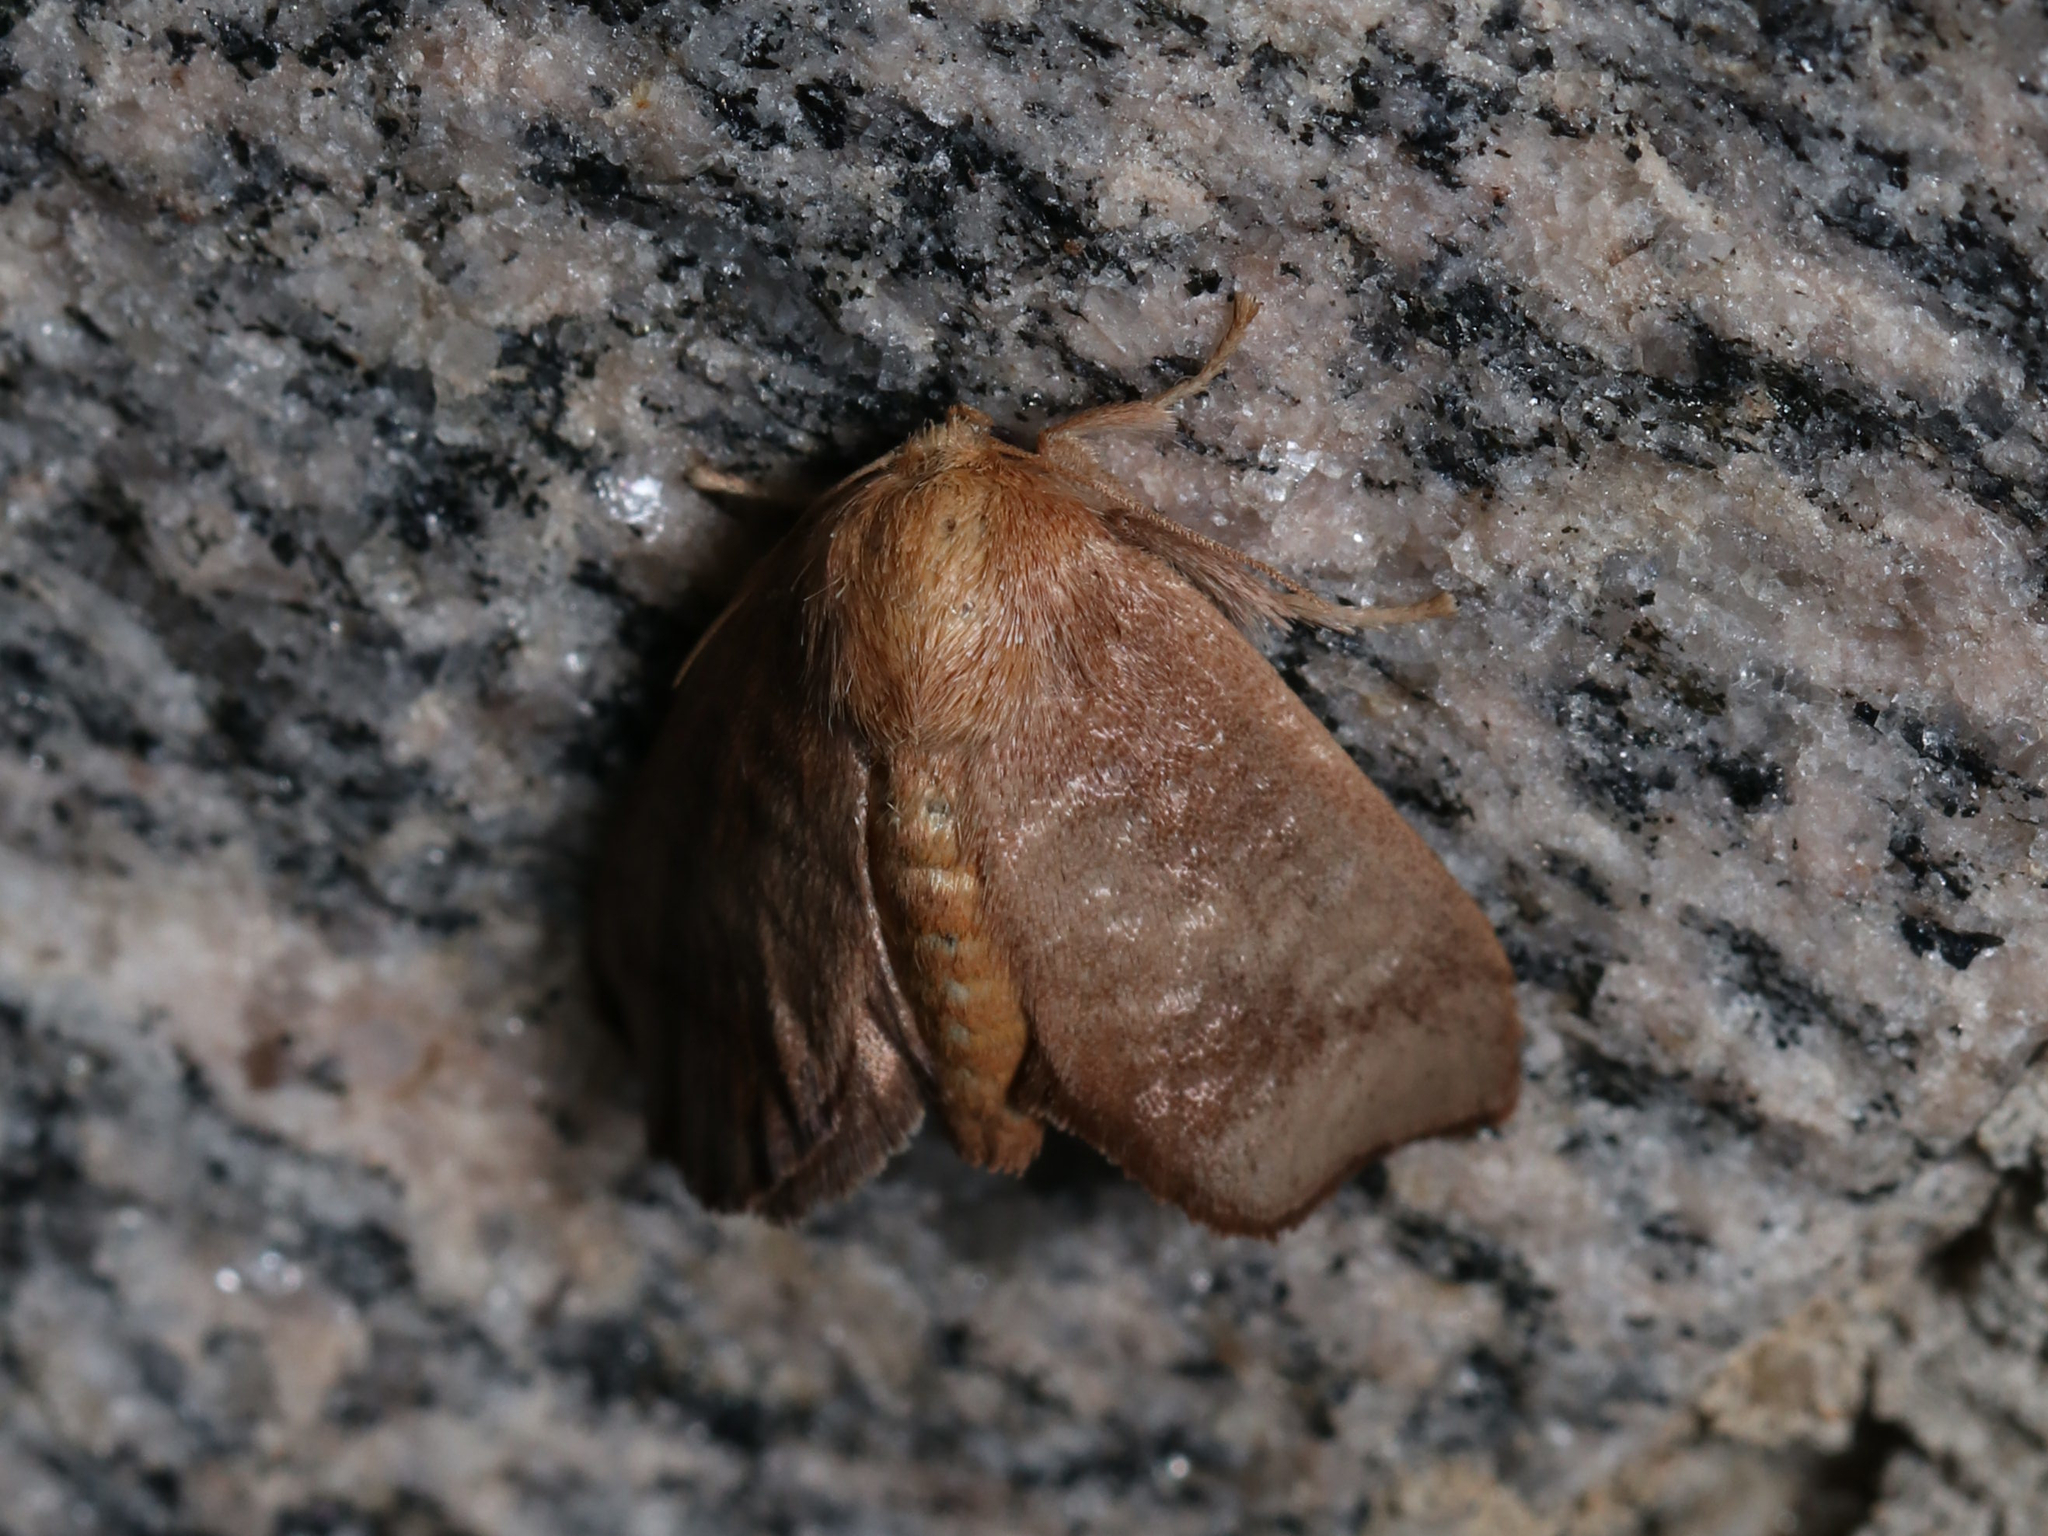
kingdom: Animalia
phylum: Arthropoda
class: Insecta
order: Lepidoptera
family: Limacodidae
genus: Isa
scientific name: Isa textula
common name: Crowned slug moth
